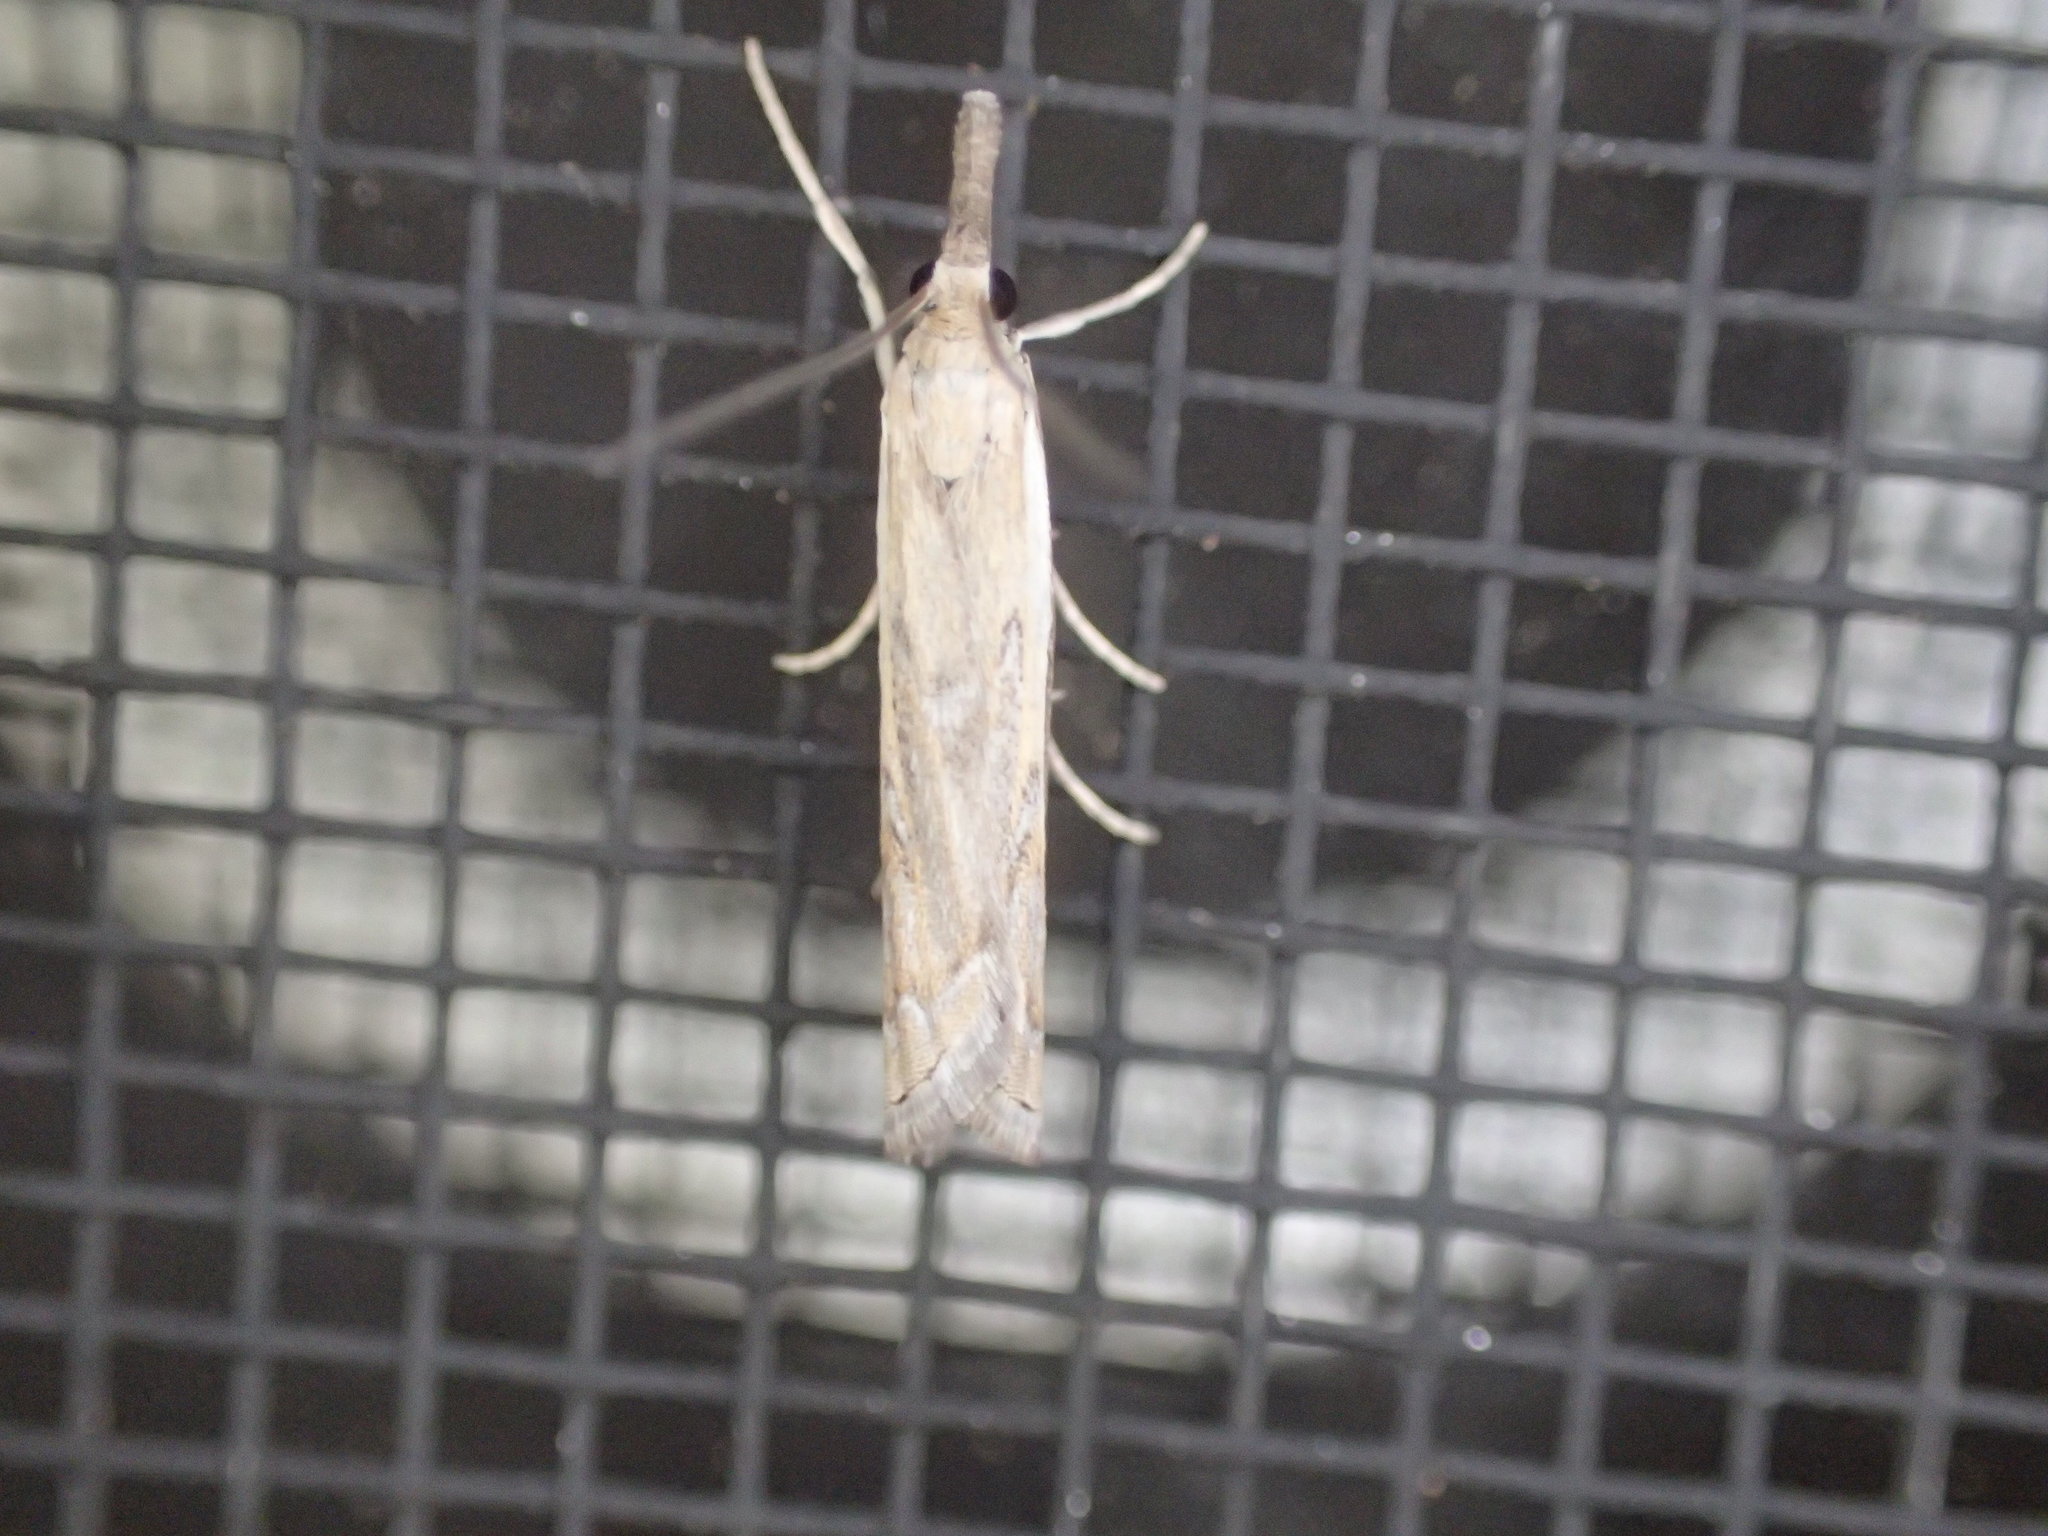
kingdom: Animalia
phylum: Arthropoda
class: Insecta
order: Lepidoptera
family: Crambidae
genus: Culladia
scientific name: Culladia cuneiferellus
